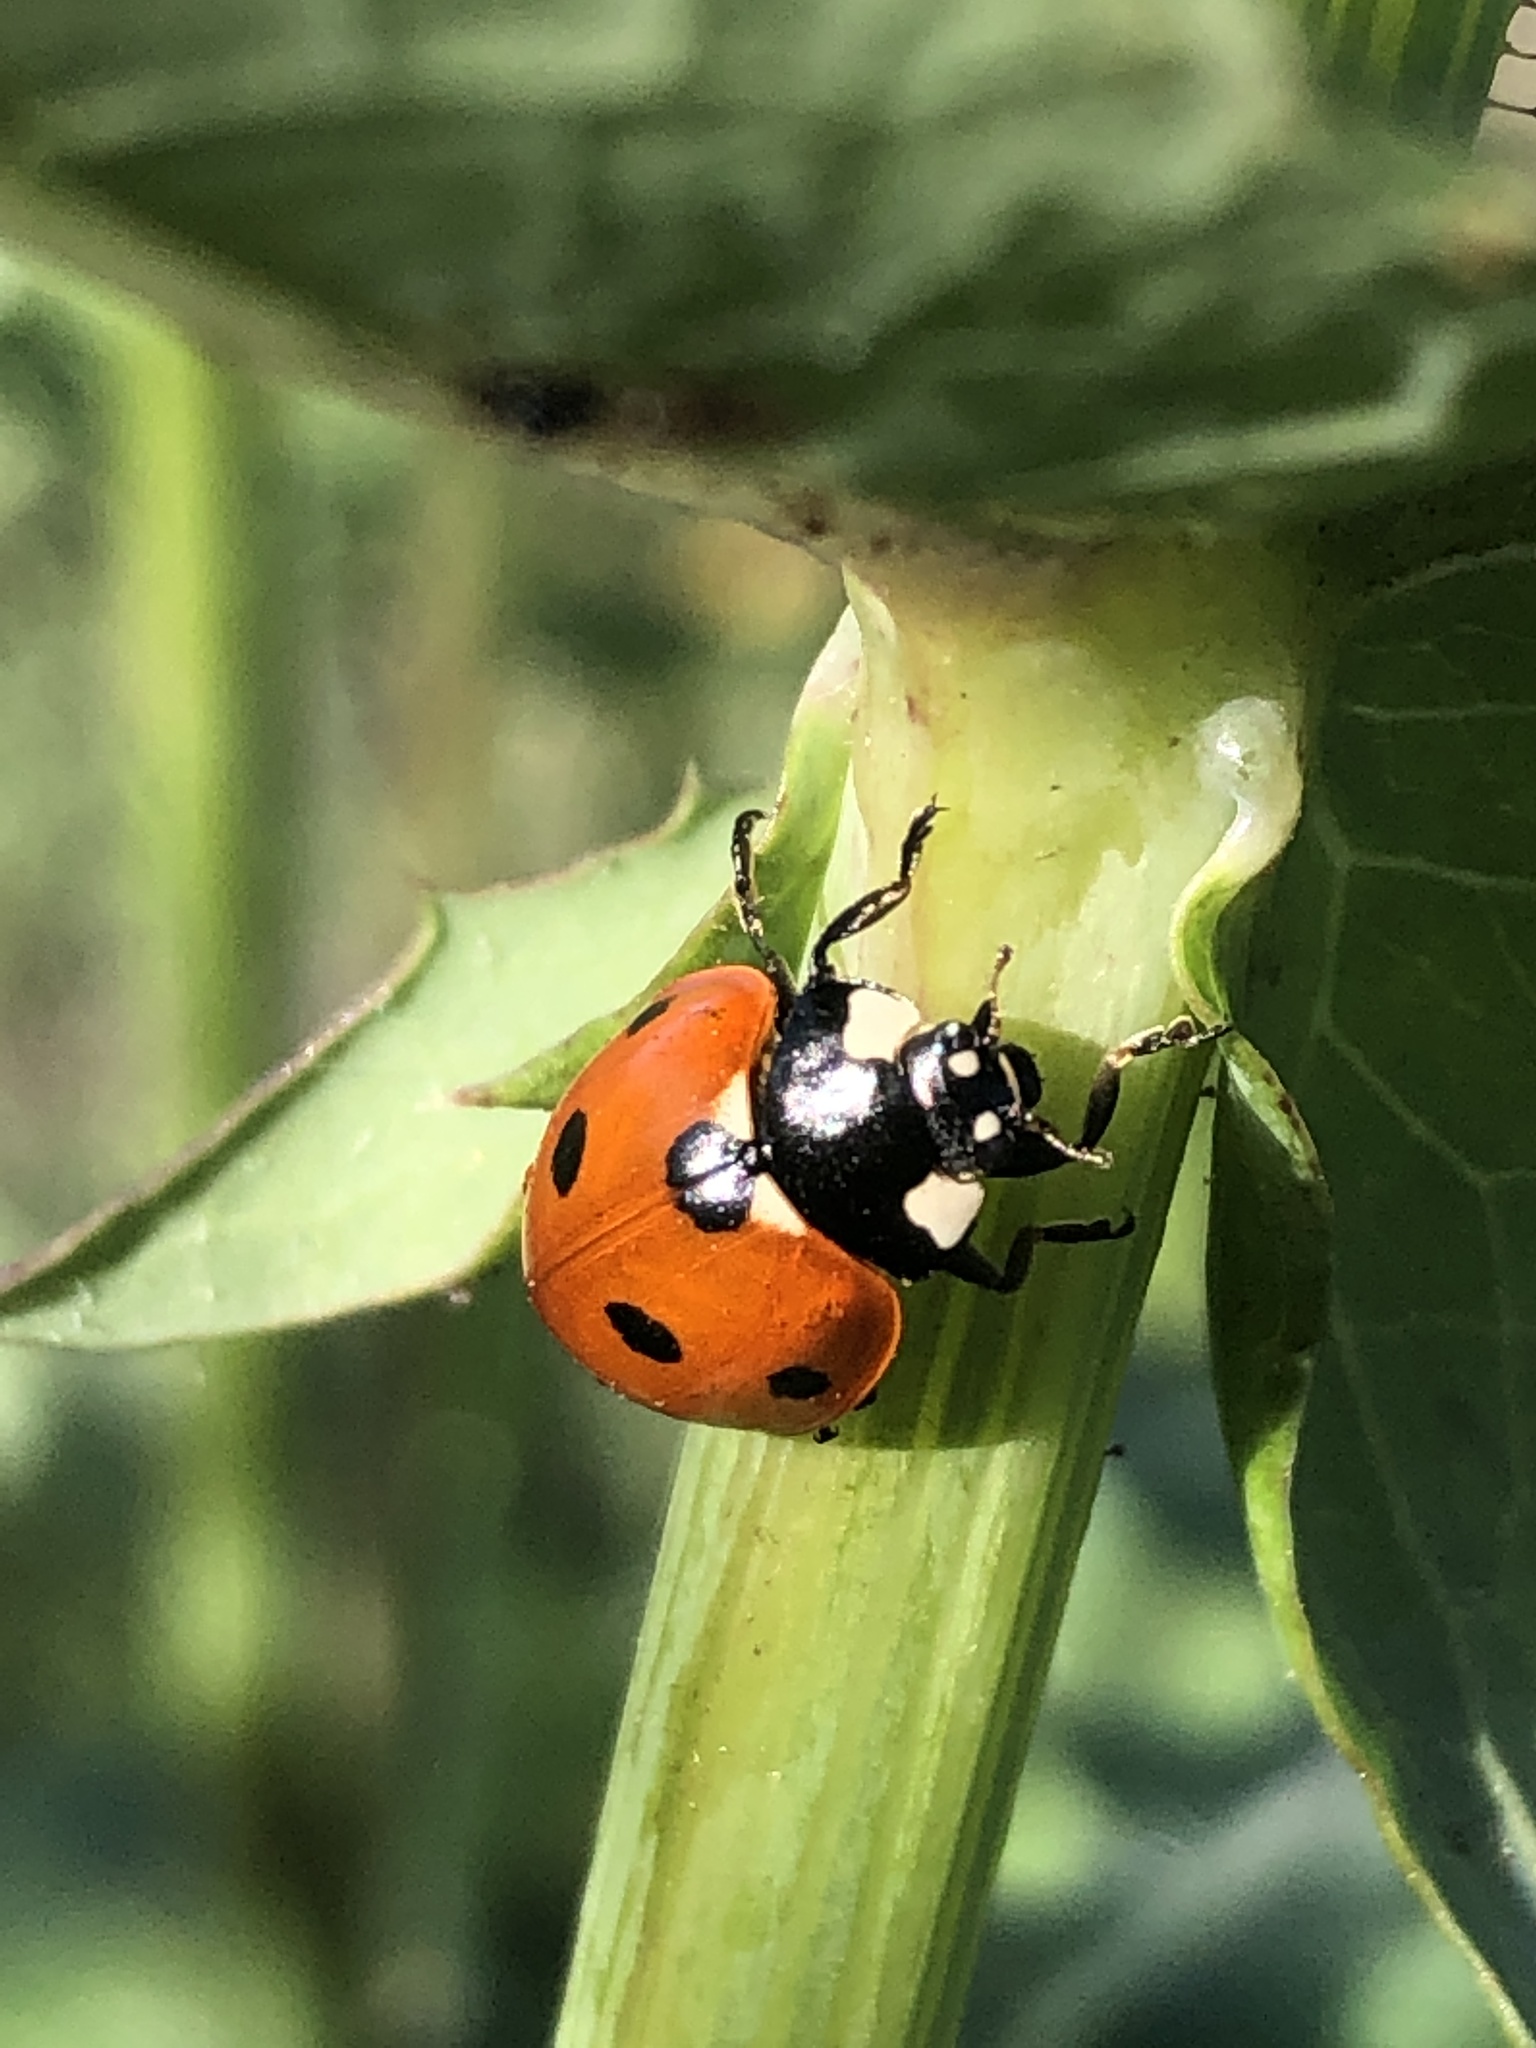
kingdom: Animalia
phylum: Arthropoda
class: Insecta
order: Coleoptera
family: Coccinellidae
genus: Coccinella
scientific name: Coccinella septempunctata
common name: Sevenspotted lady beetle
